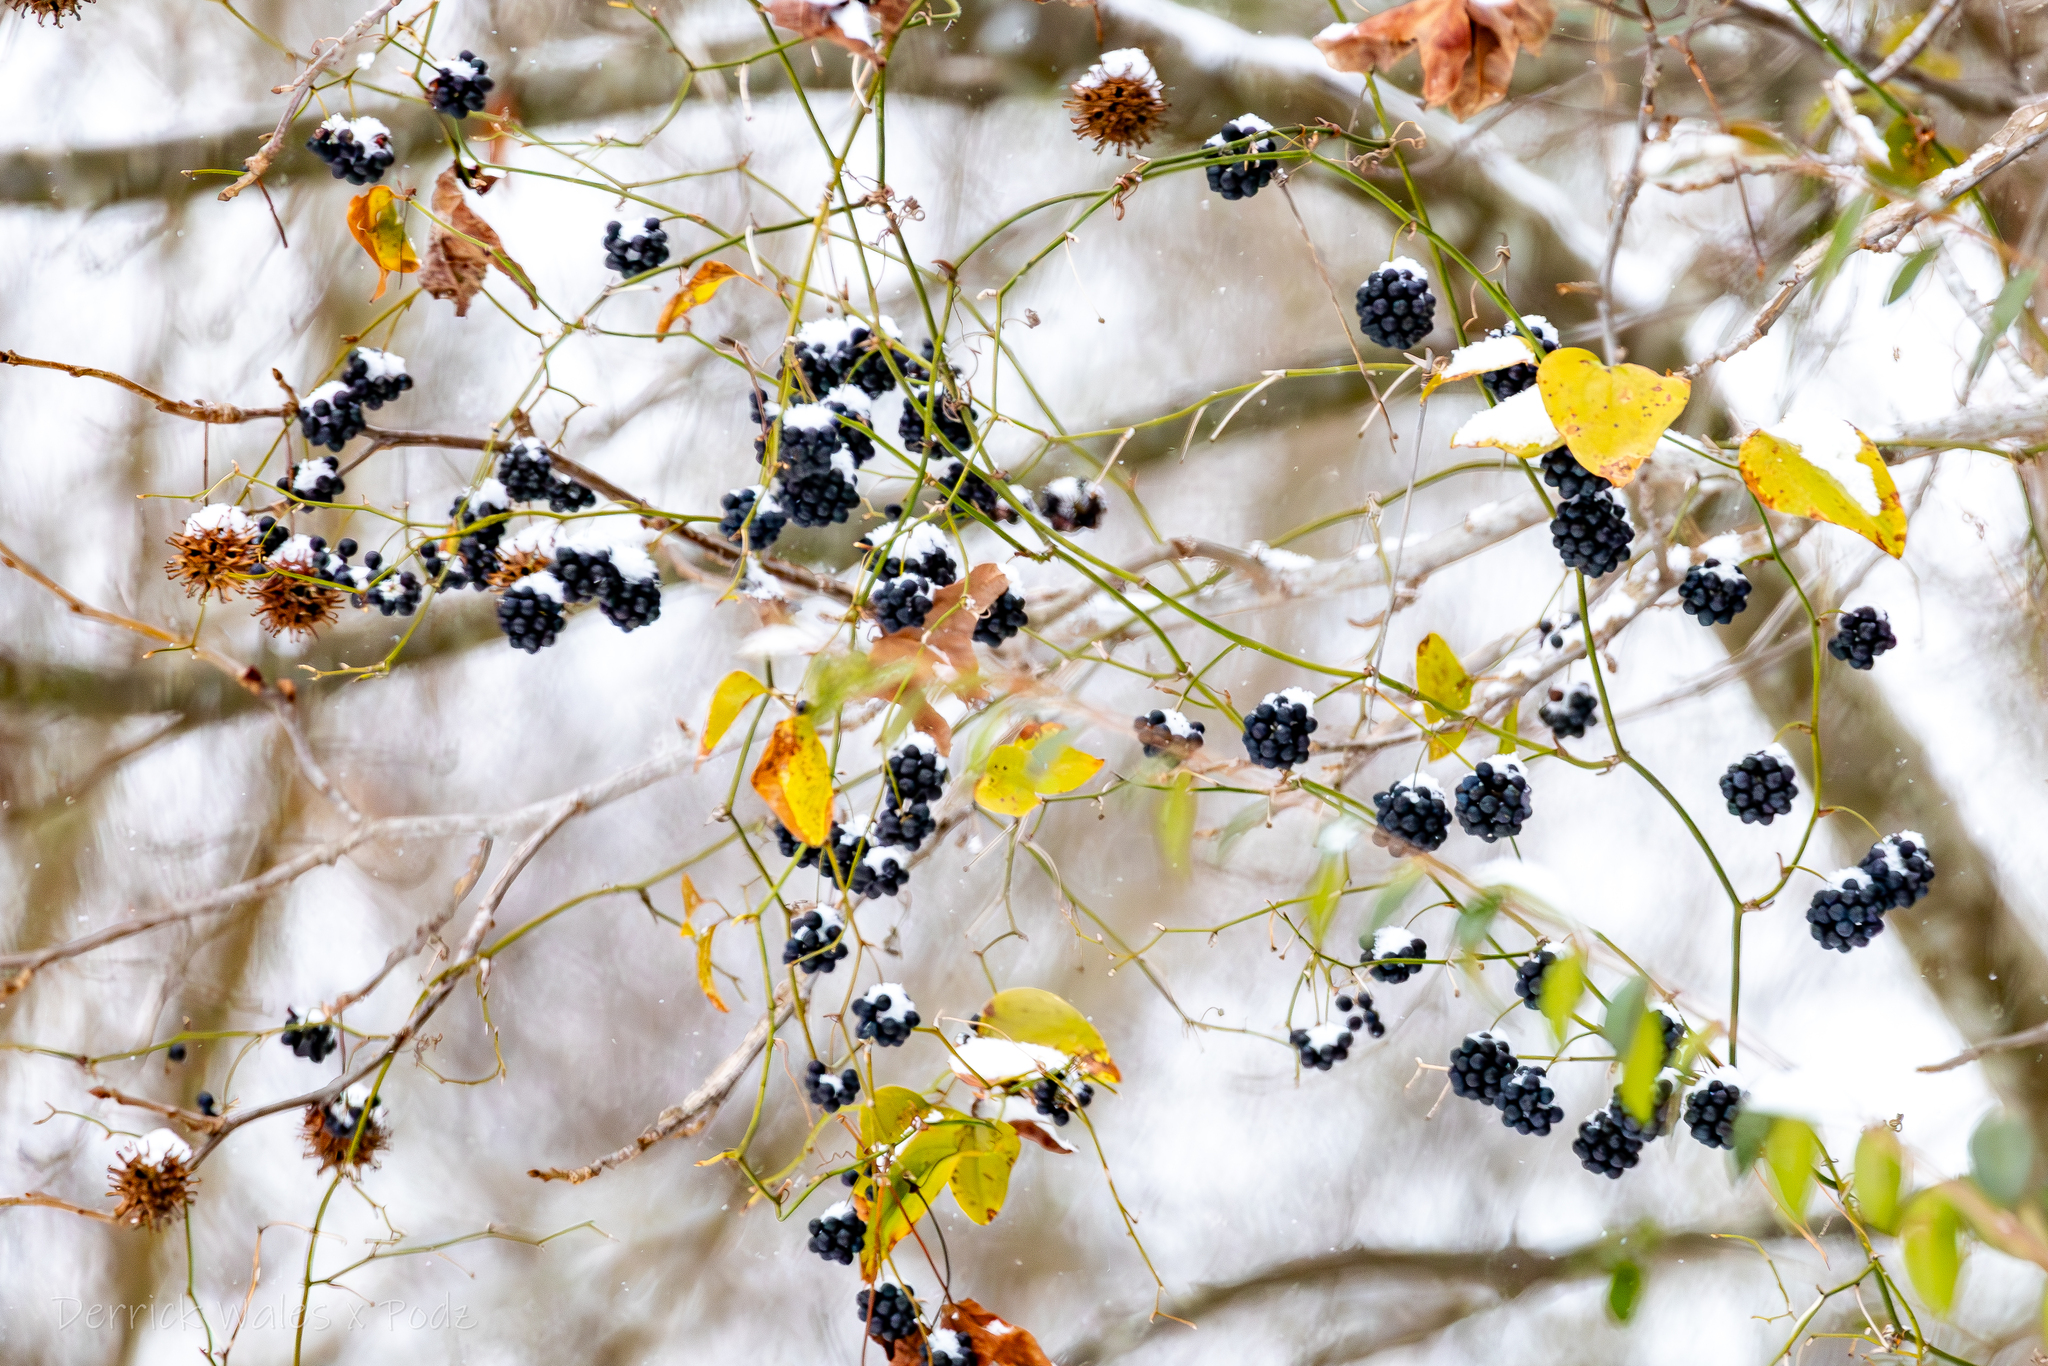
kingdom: Plantae
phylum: Tracheophyta
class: Magnoliopsida
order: Saxifragales
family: Altingiaceae
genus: Liquidambar
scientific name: Liquidambar styraciflua
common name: Sweet gum
